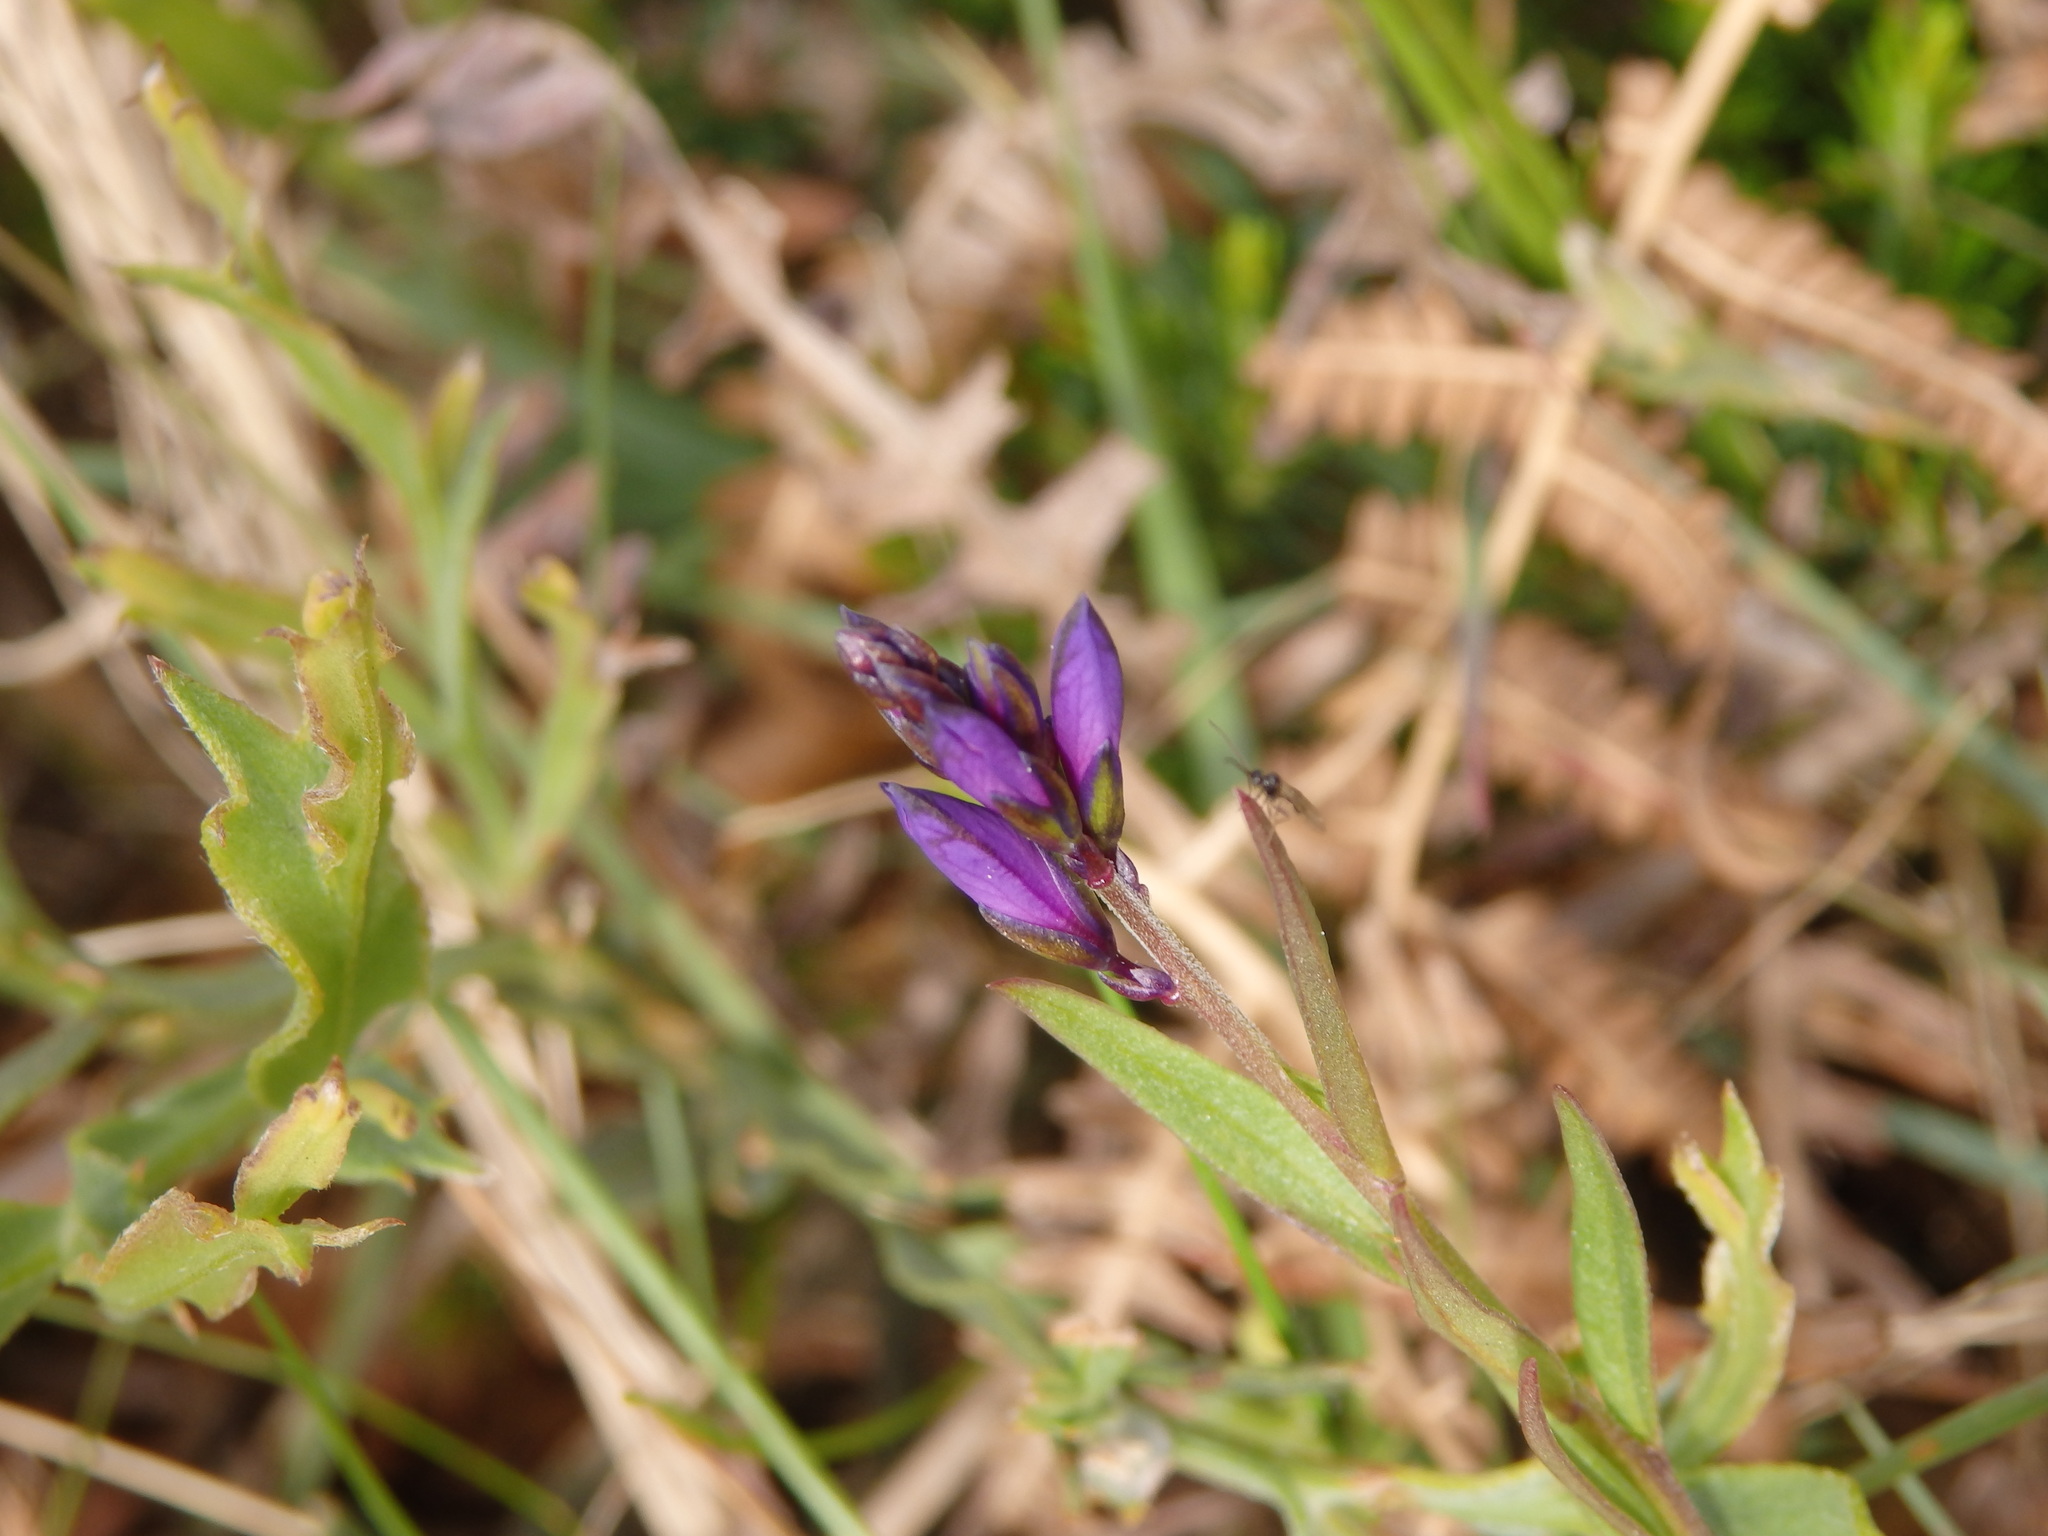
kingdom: Plantae
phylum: Tracheophyta
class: Magnoliopsida
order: Fabales
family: Polygalaceae
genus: Polygala
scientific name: Polygala vulgaris
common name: Common milkwort
